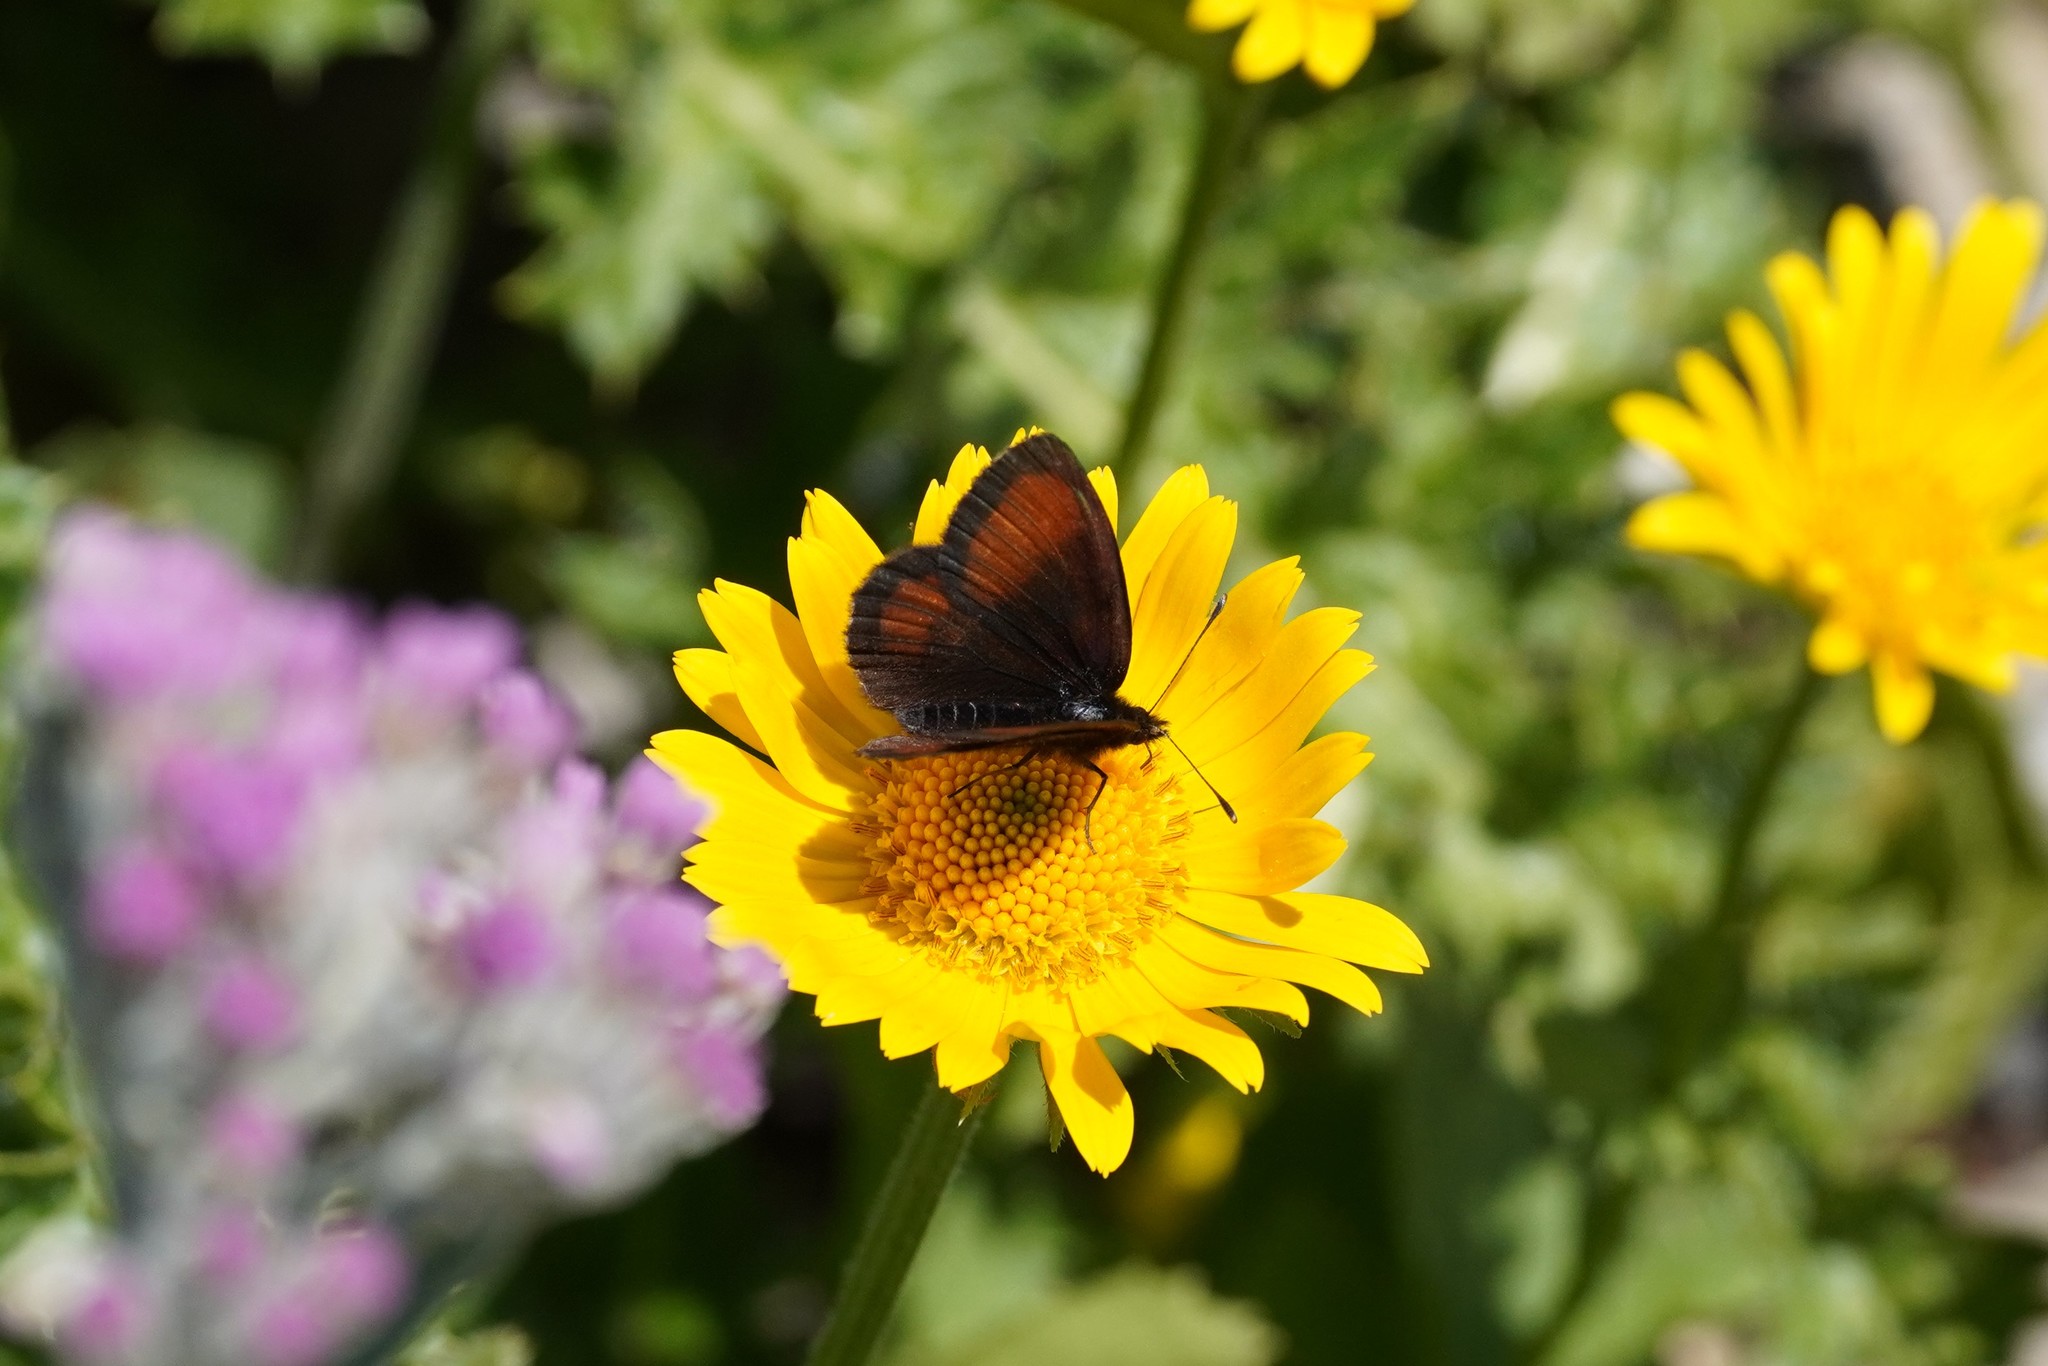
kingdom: Animalia
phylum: Arthropoda
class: Insecta
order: Lepidoptera
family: Nymphalidae
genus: Erebia
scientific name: Erebia gorge
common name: Silky ringlet
